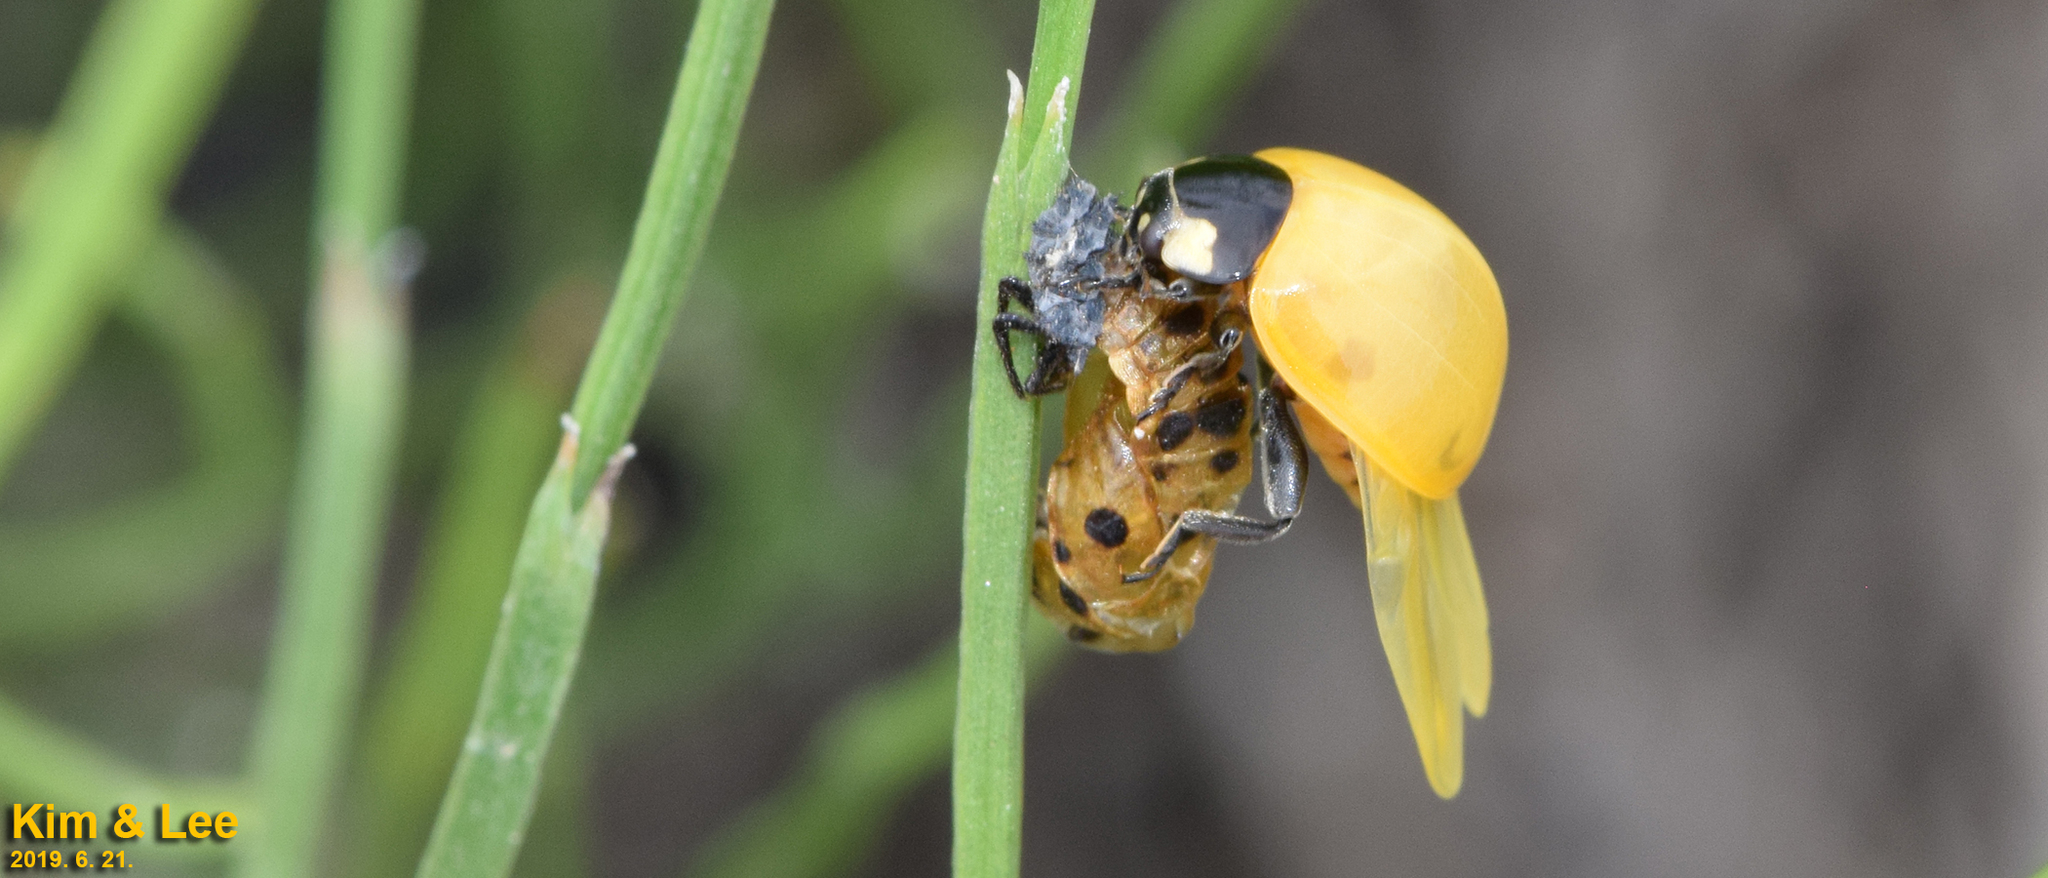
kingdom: Animalia
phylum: Arthropoda
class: Insecta
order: Coleoptera
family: Coccinellidae
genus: Coccinella
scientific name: Coccinella septempunctata
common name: Sevenspotted lady beetle
